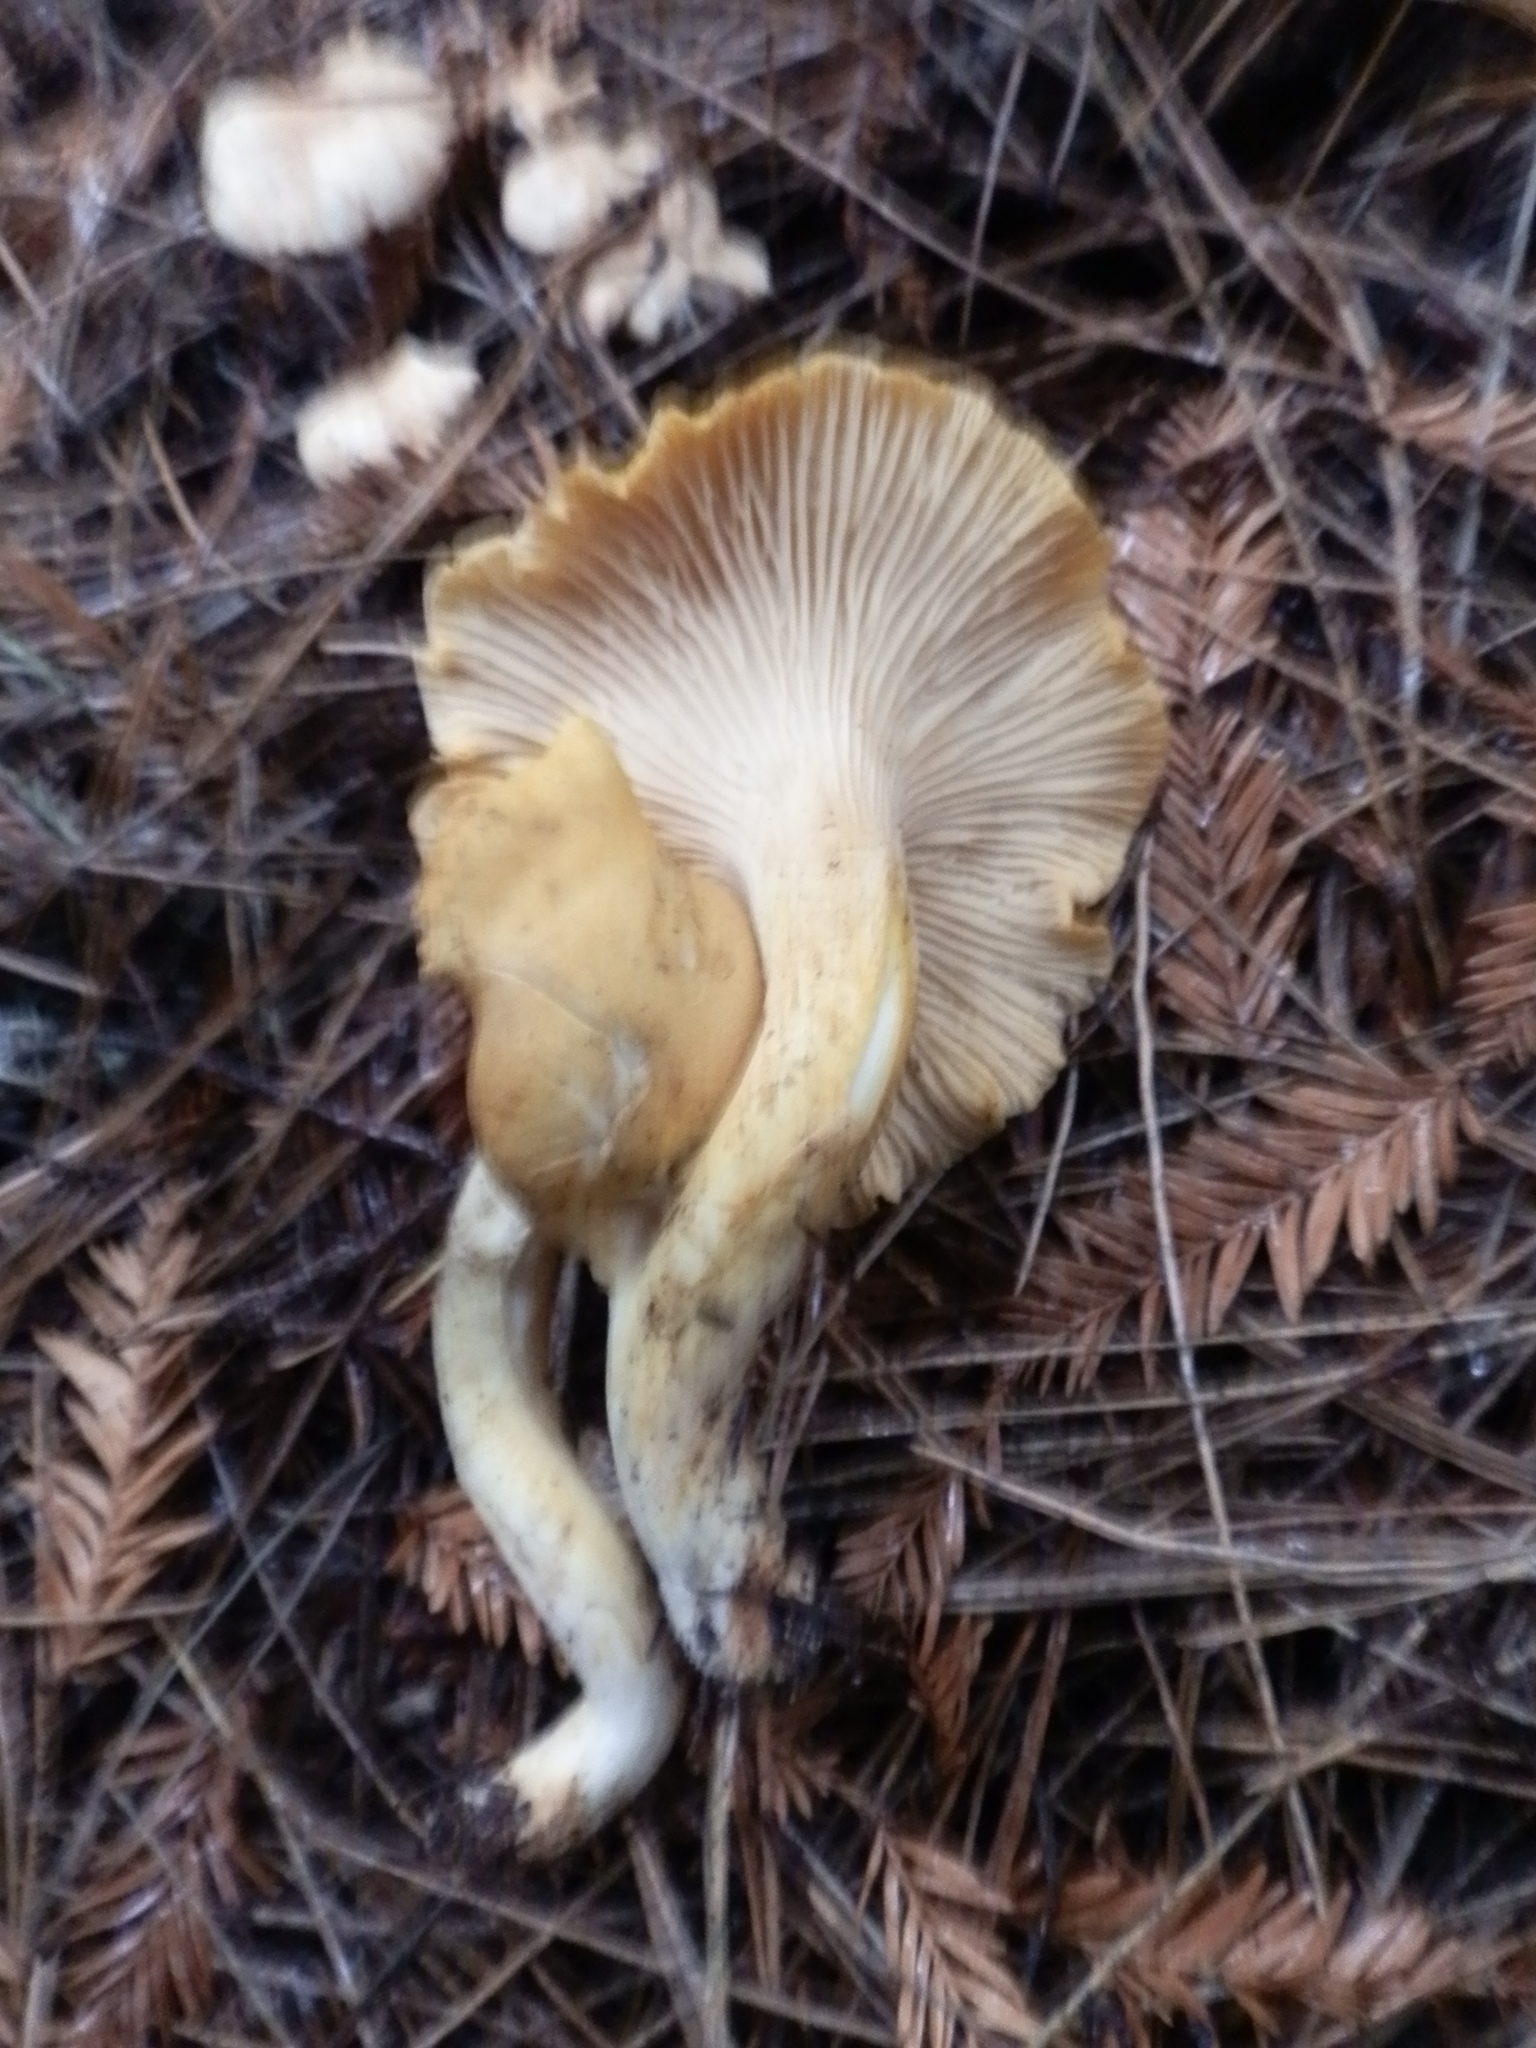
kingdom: Fungi
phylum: Basidiomycota
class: Agaricomycetes
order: Cantharellales
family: Hydnaceae
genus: Cantharellus
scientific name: Cantharellus formosus
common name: Pacific golden chanterelle
